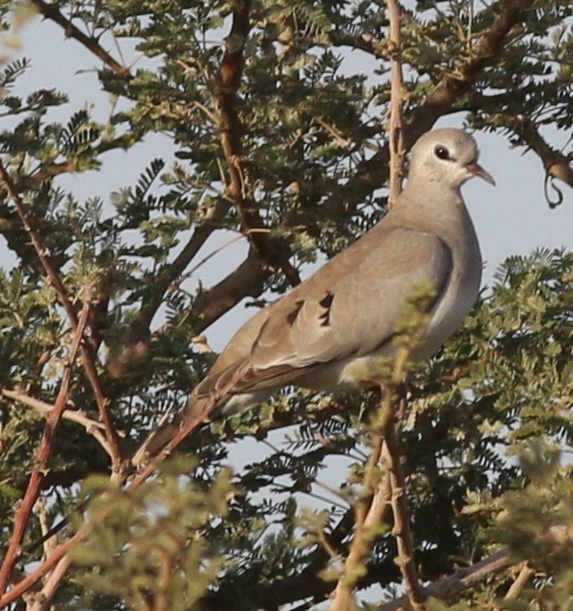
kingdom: Animalia
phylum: Chordata
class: Aves
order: Columbiformes
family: Columbidae
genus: Oena
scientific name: Oena capensis
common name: Namaqua dove
